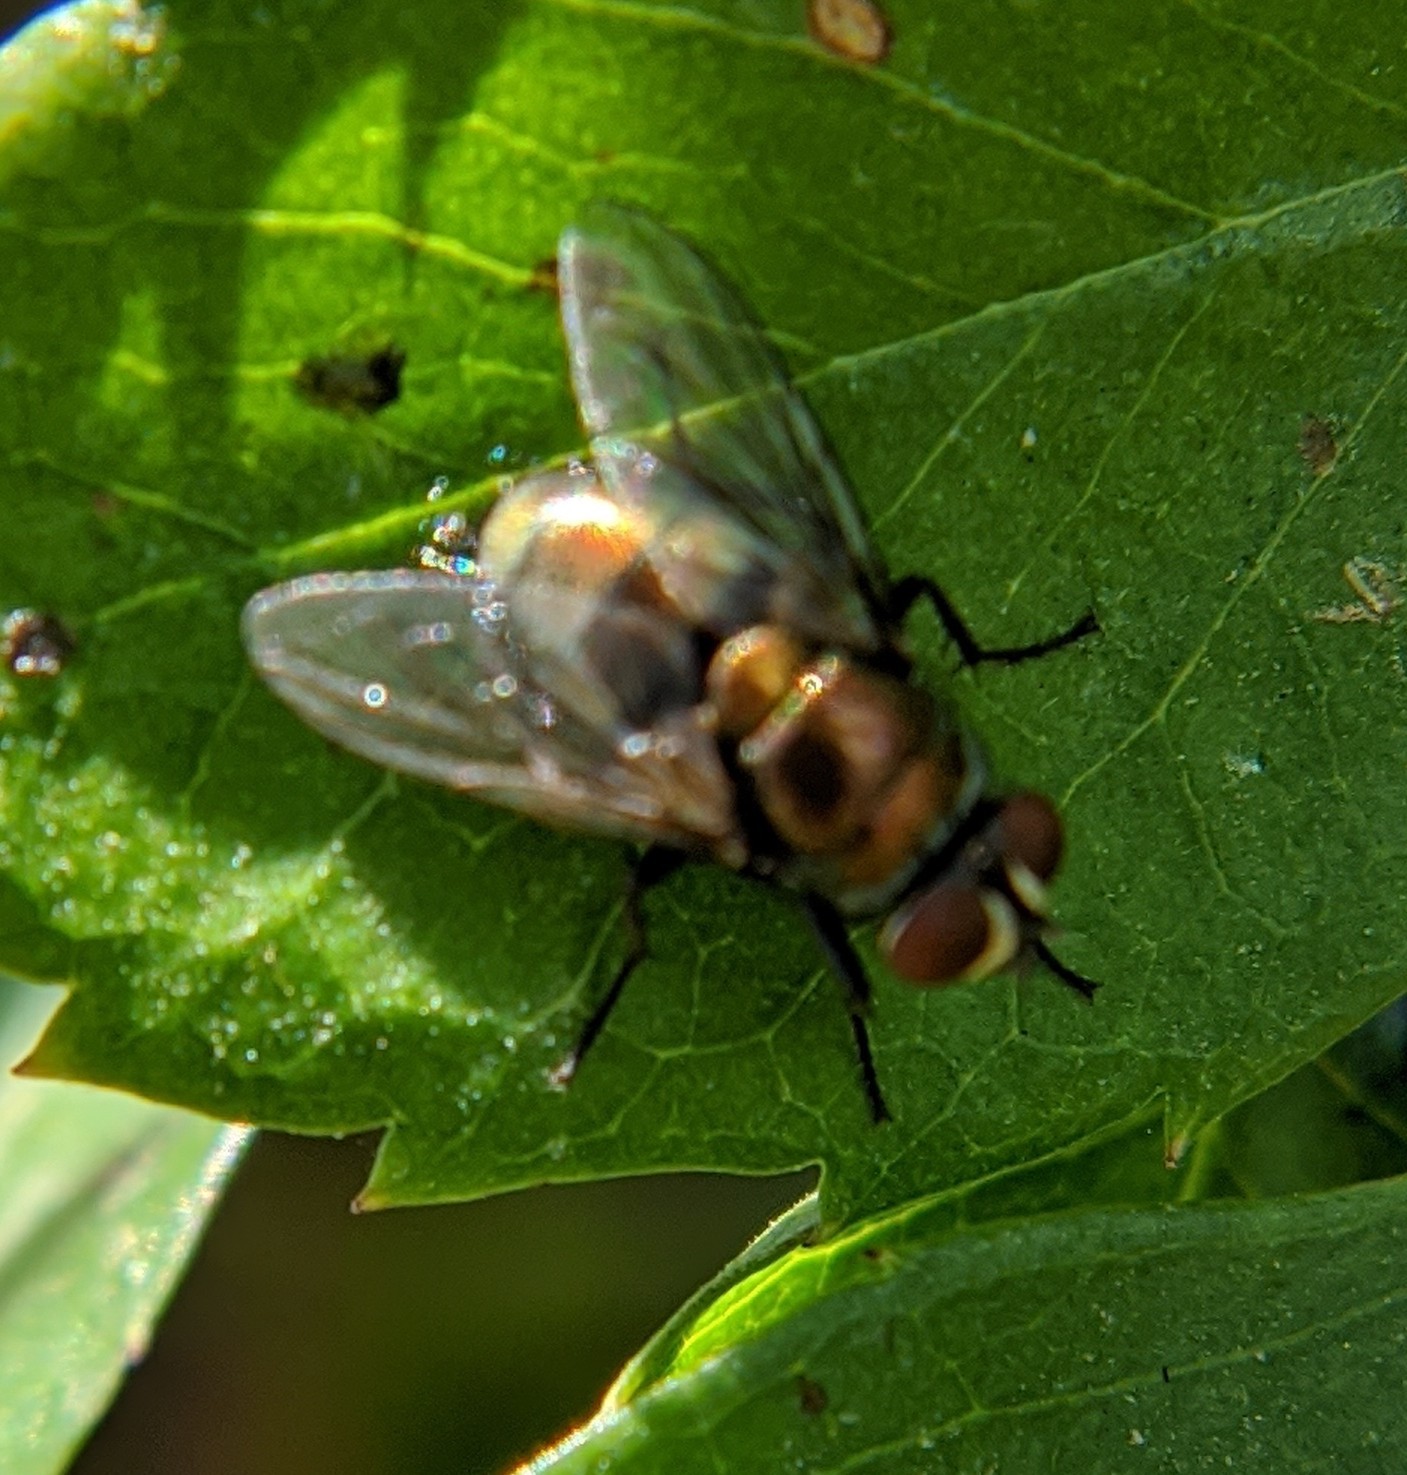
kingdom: Animalia
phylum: Arthropoda
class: Insecta
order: Diptera
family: Calliphoridae
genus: Lucilia
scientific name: Lucilia cuprina
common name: Sheep blow fly
